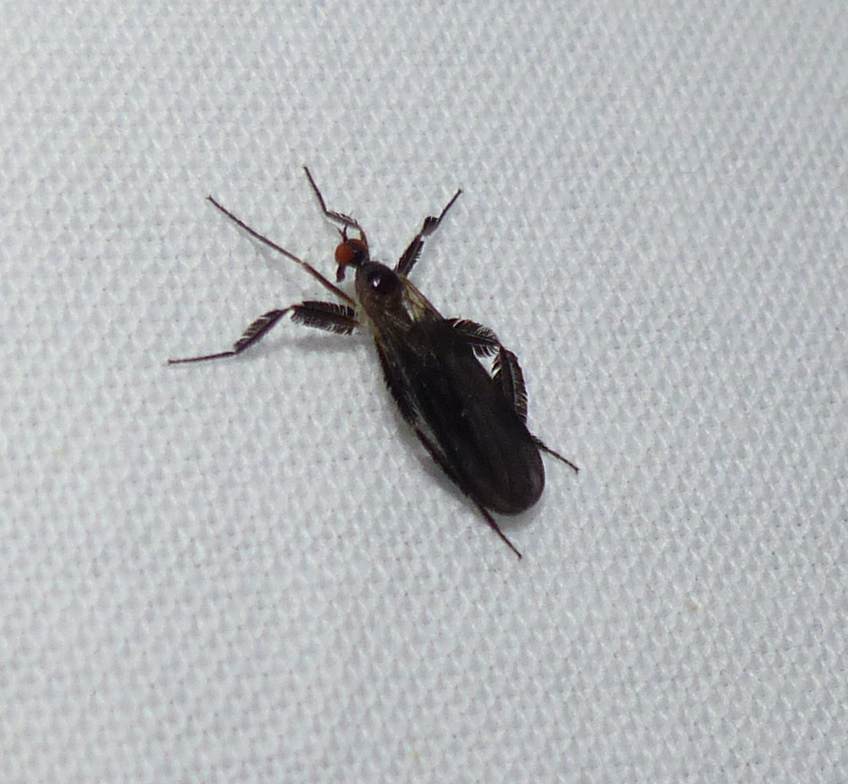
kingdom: Animalia
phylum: Arthropoda
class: Insecta
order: Diptera
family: Empididae
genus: Rhamphomyia
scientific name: Rhamphomyia longicauda
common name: Long-tailed dance fly
